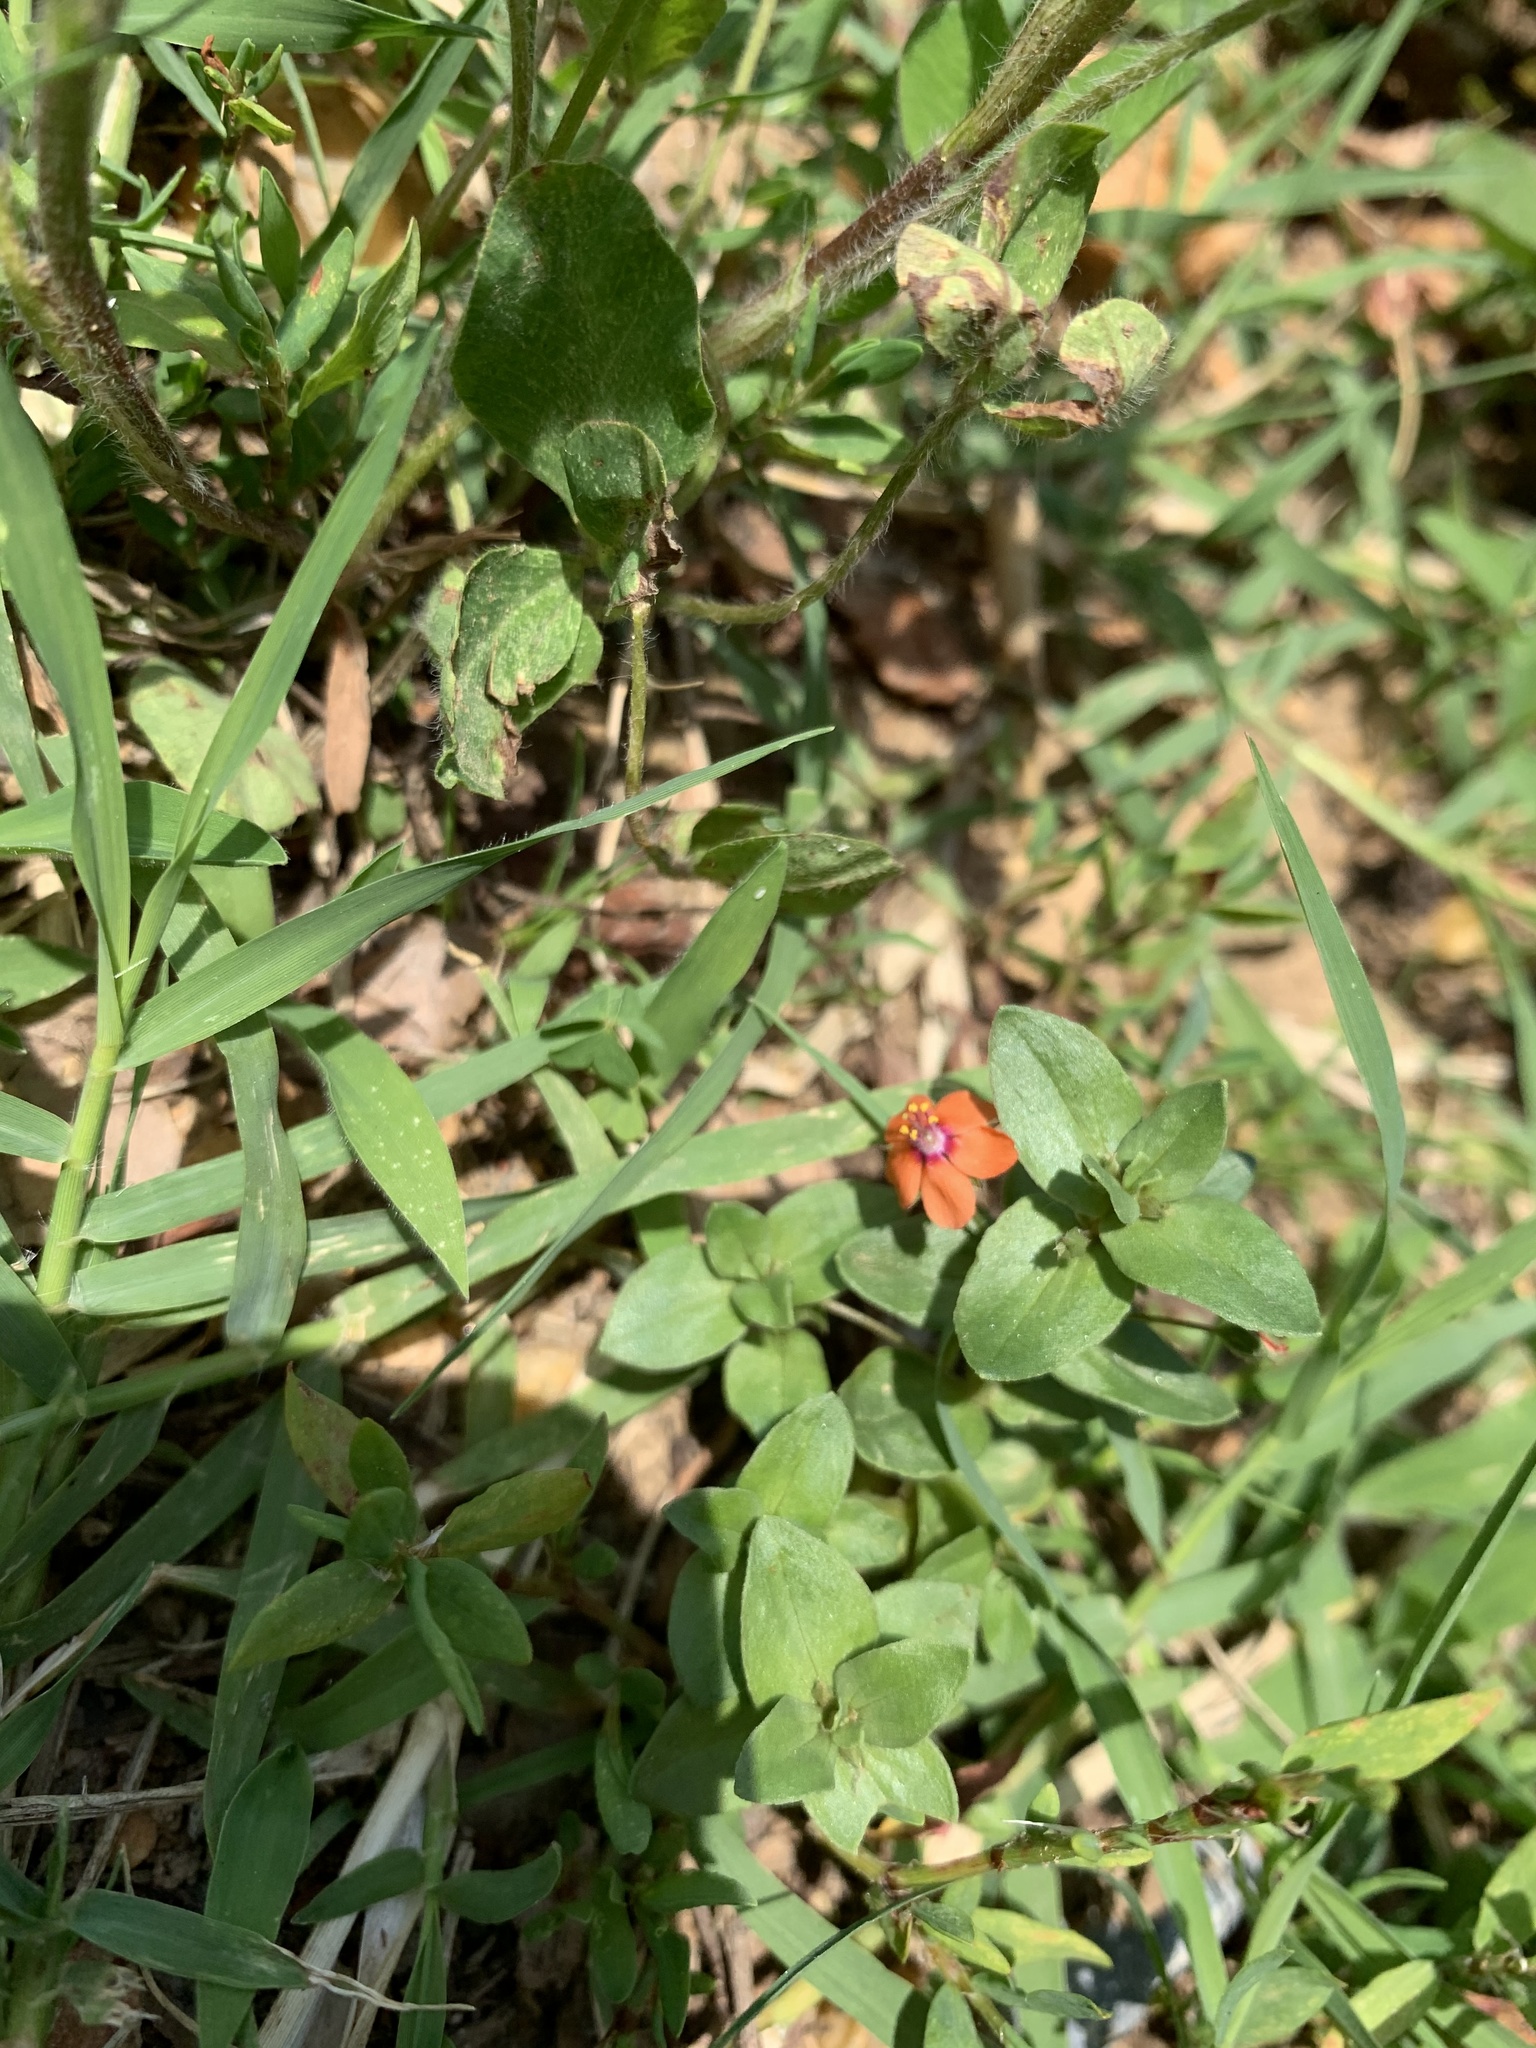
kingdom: Plantae
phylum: Tracheophyta
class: Magnoliopsida
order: Ericales
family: Primulaceae
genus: Lysimachia
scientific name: Lysimachia arvensis
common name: Scarlet pimpernel
